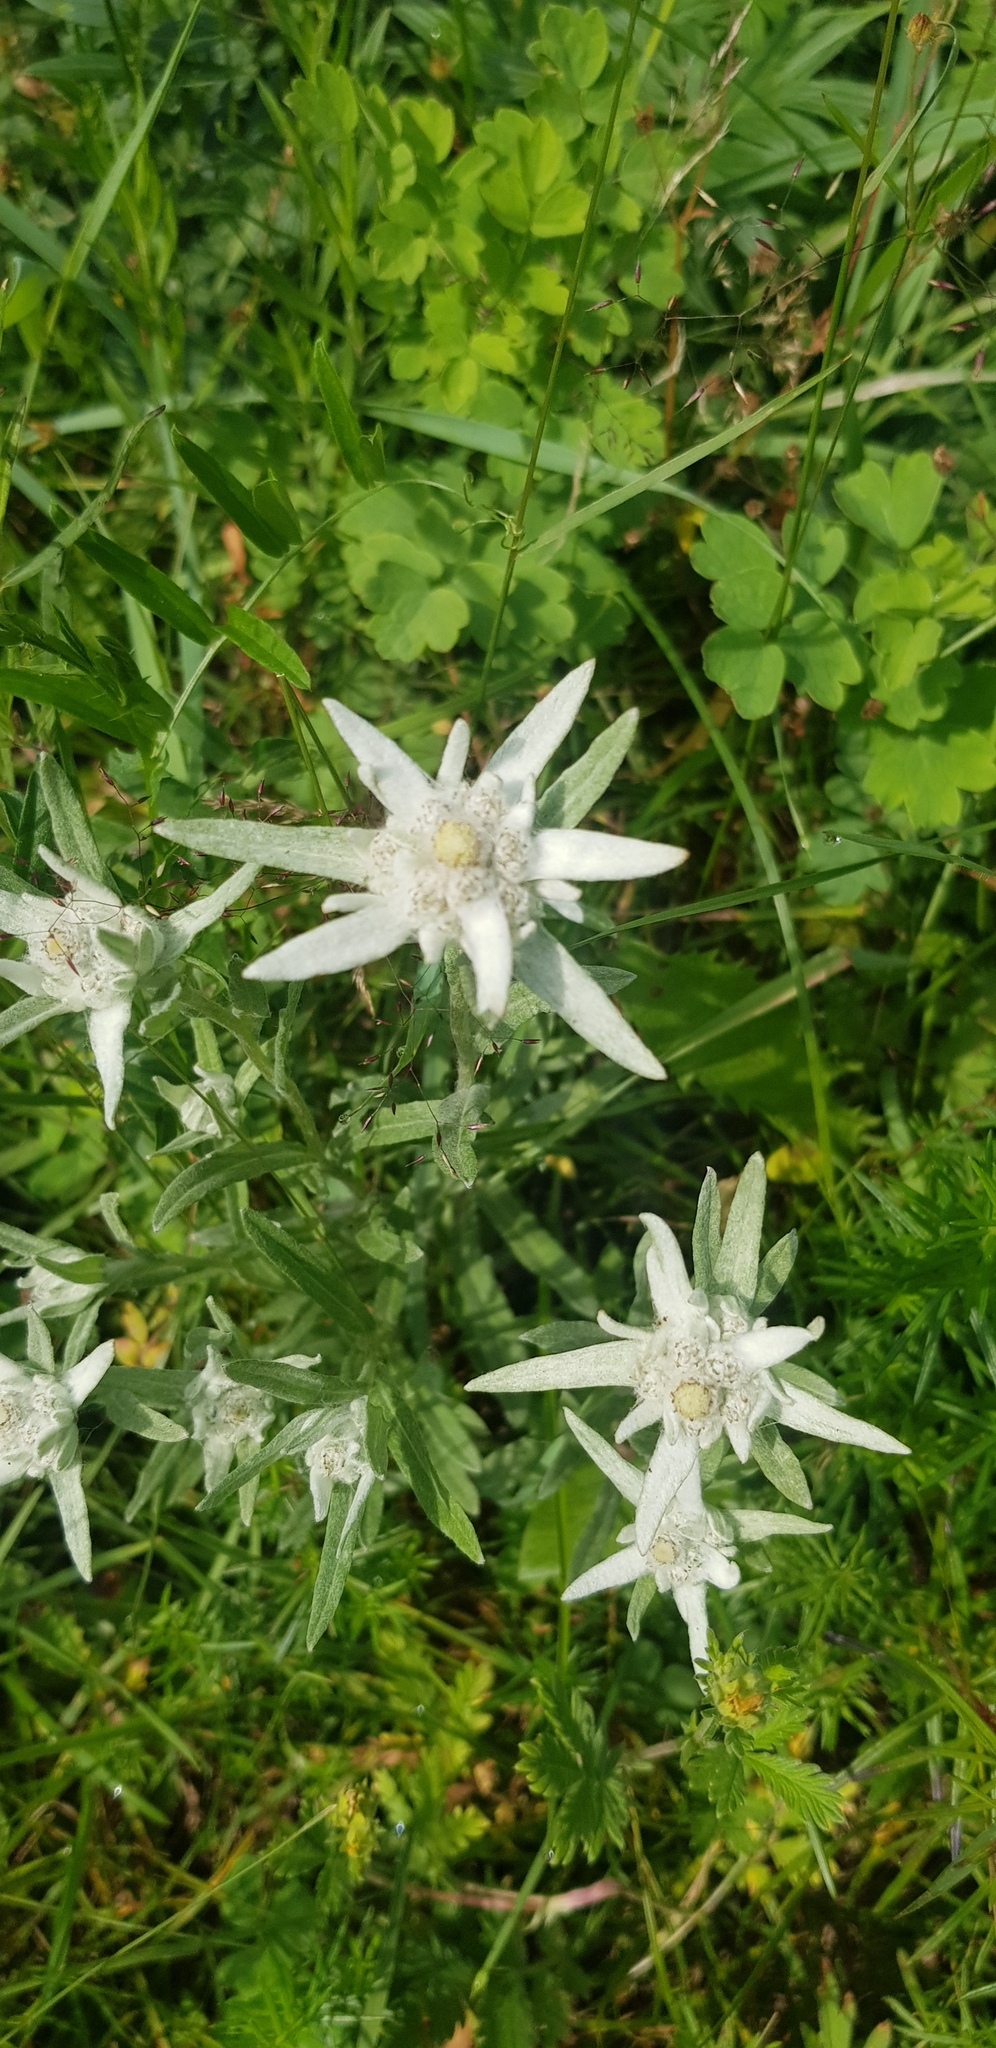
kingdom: Plantae
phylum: Tracheophyta
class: Magnoliopsida
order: Asterales
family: Asteraceae
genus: Leontopodium
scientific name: Leontopodium leontopodioides
